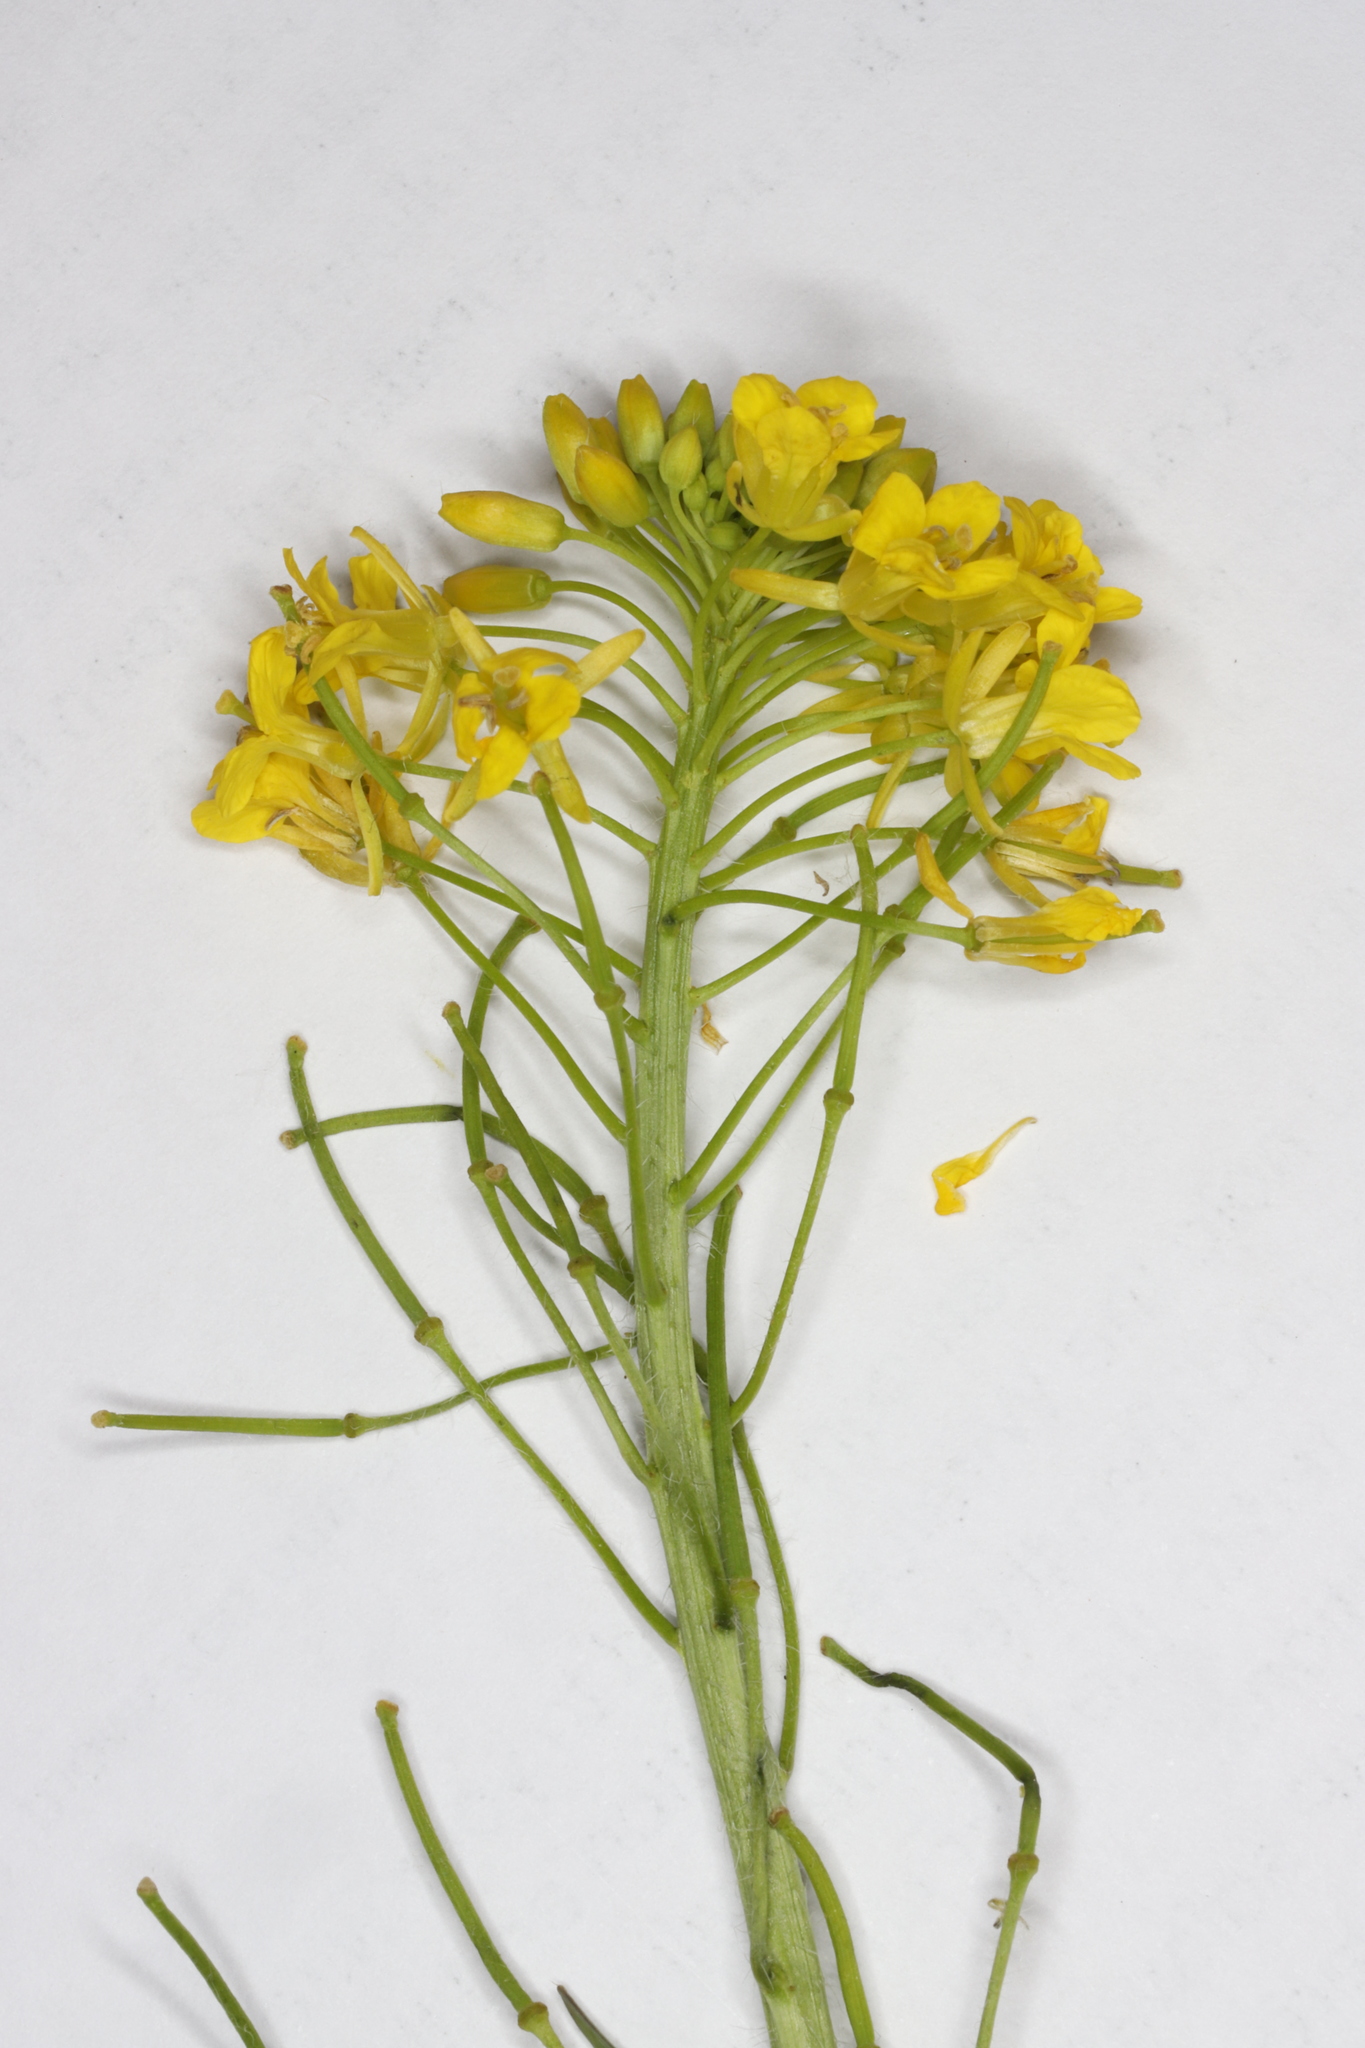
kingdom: Plantae
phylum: Tracheophyta
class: Magnoliopsida
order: Brassicales
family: Brassicaceae
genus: Sisymbrium
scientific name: Sisymbrium loeselii
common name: False london-rocket
